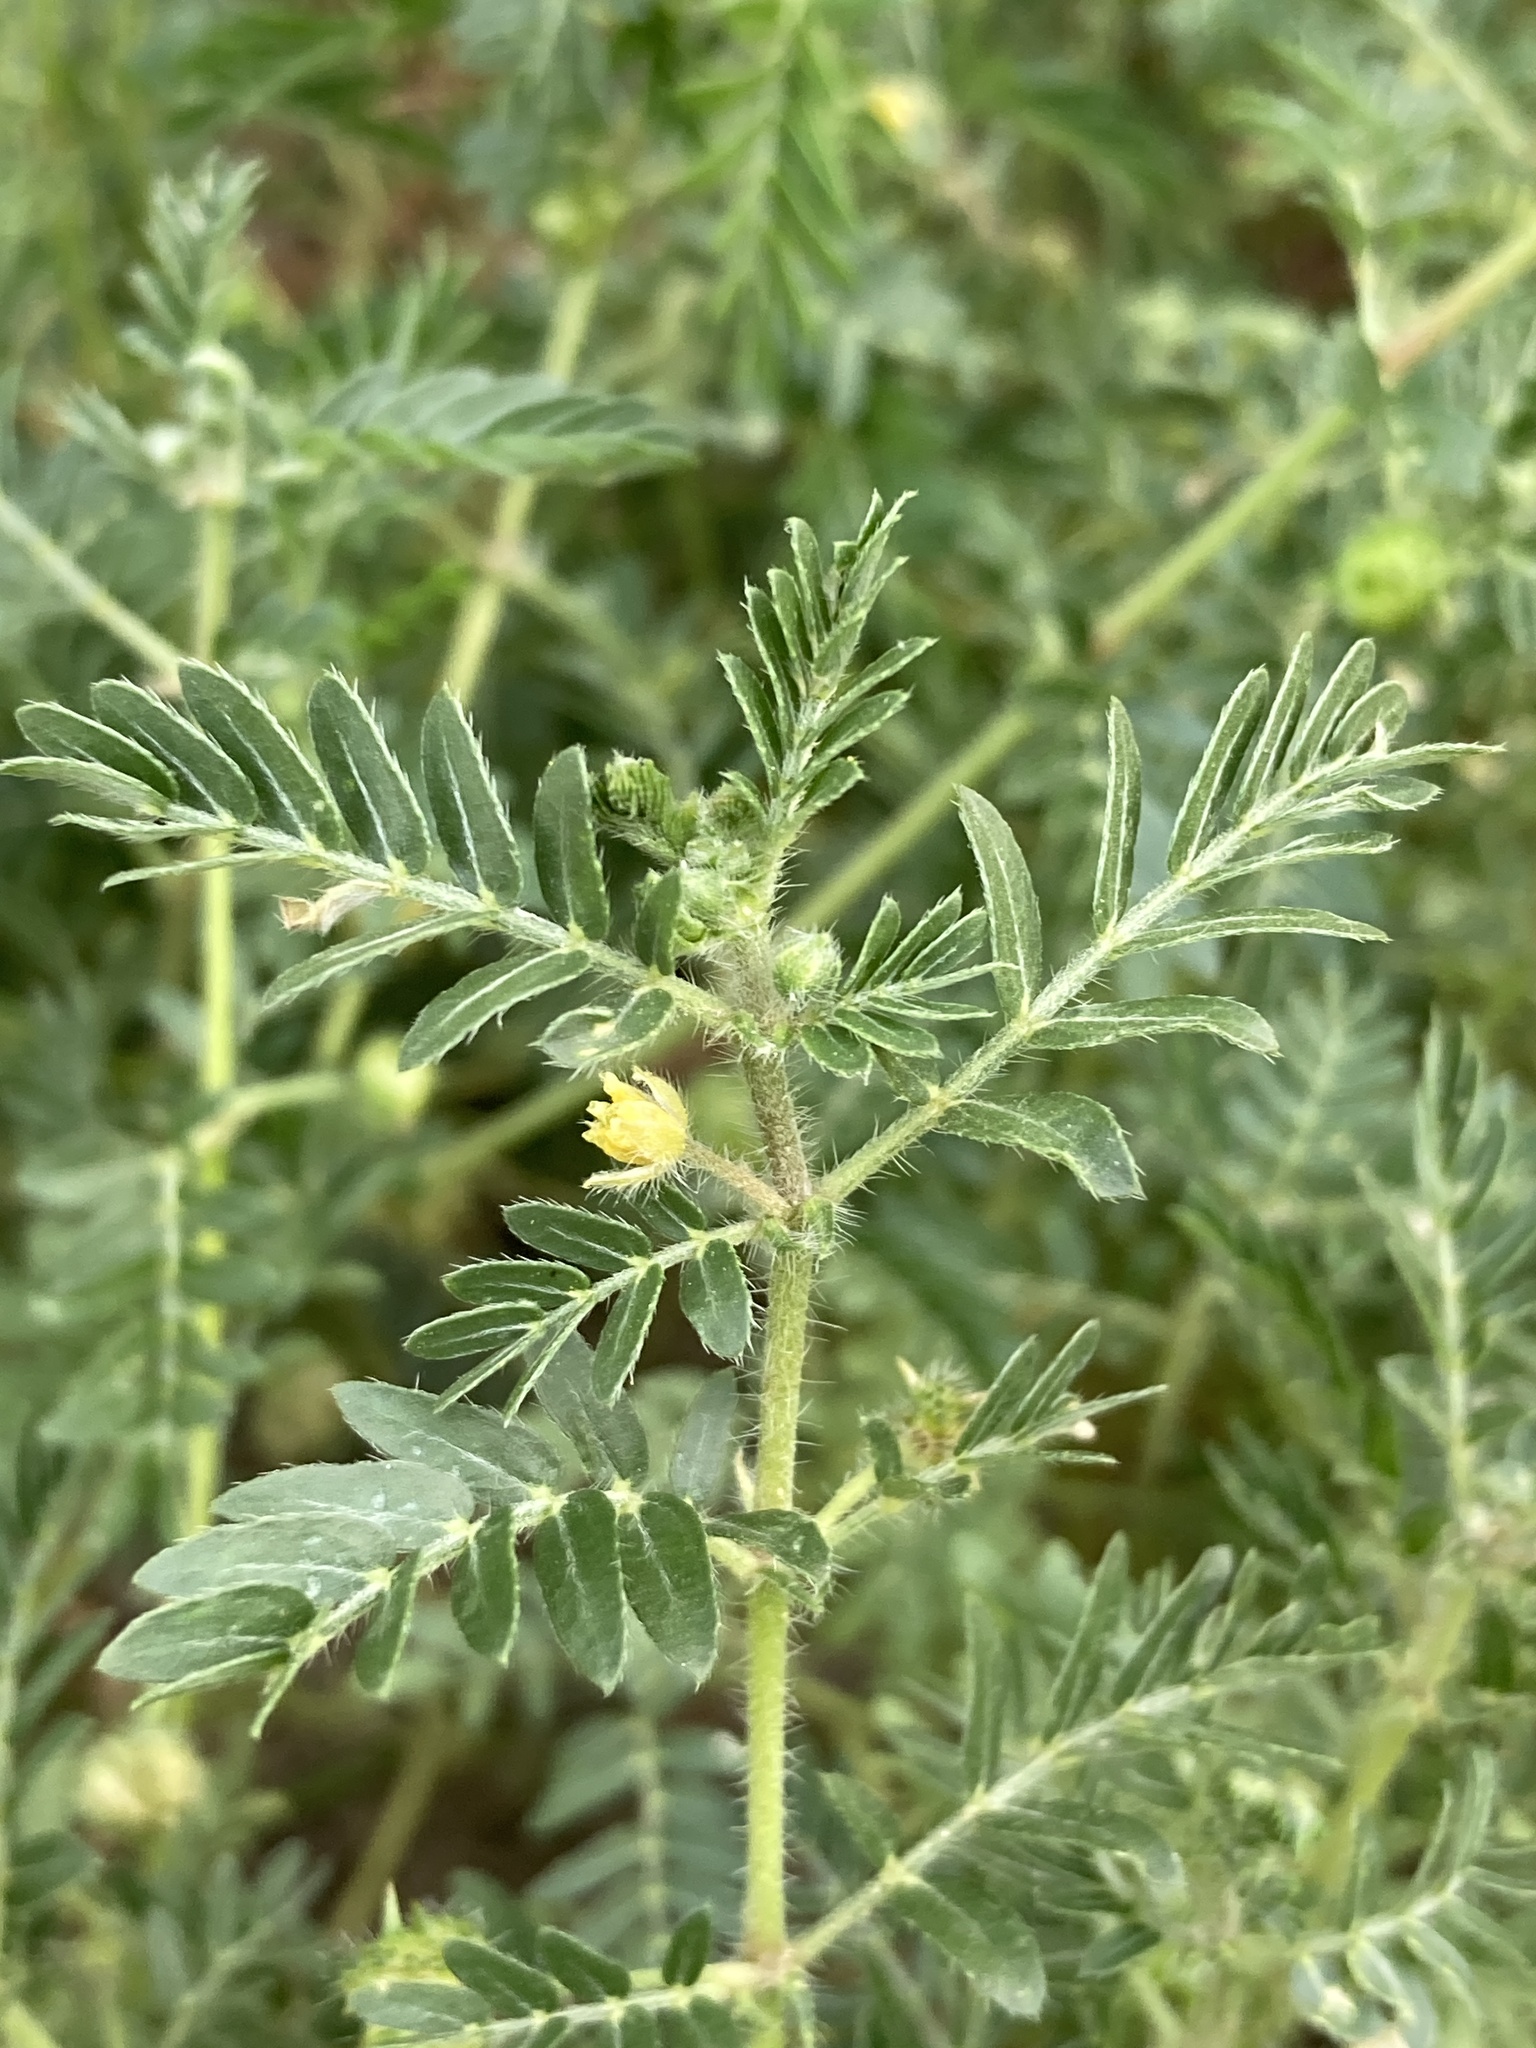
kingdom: Plantae
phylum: Tracheophyta
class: Magnoliopsida
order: Zygophyllales
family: Zygophyllaceae
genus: Tribulus
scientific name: Tribulus terrestris
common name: Puncturevine
